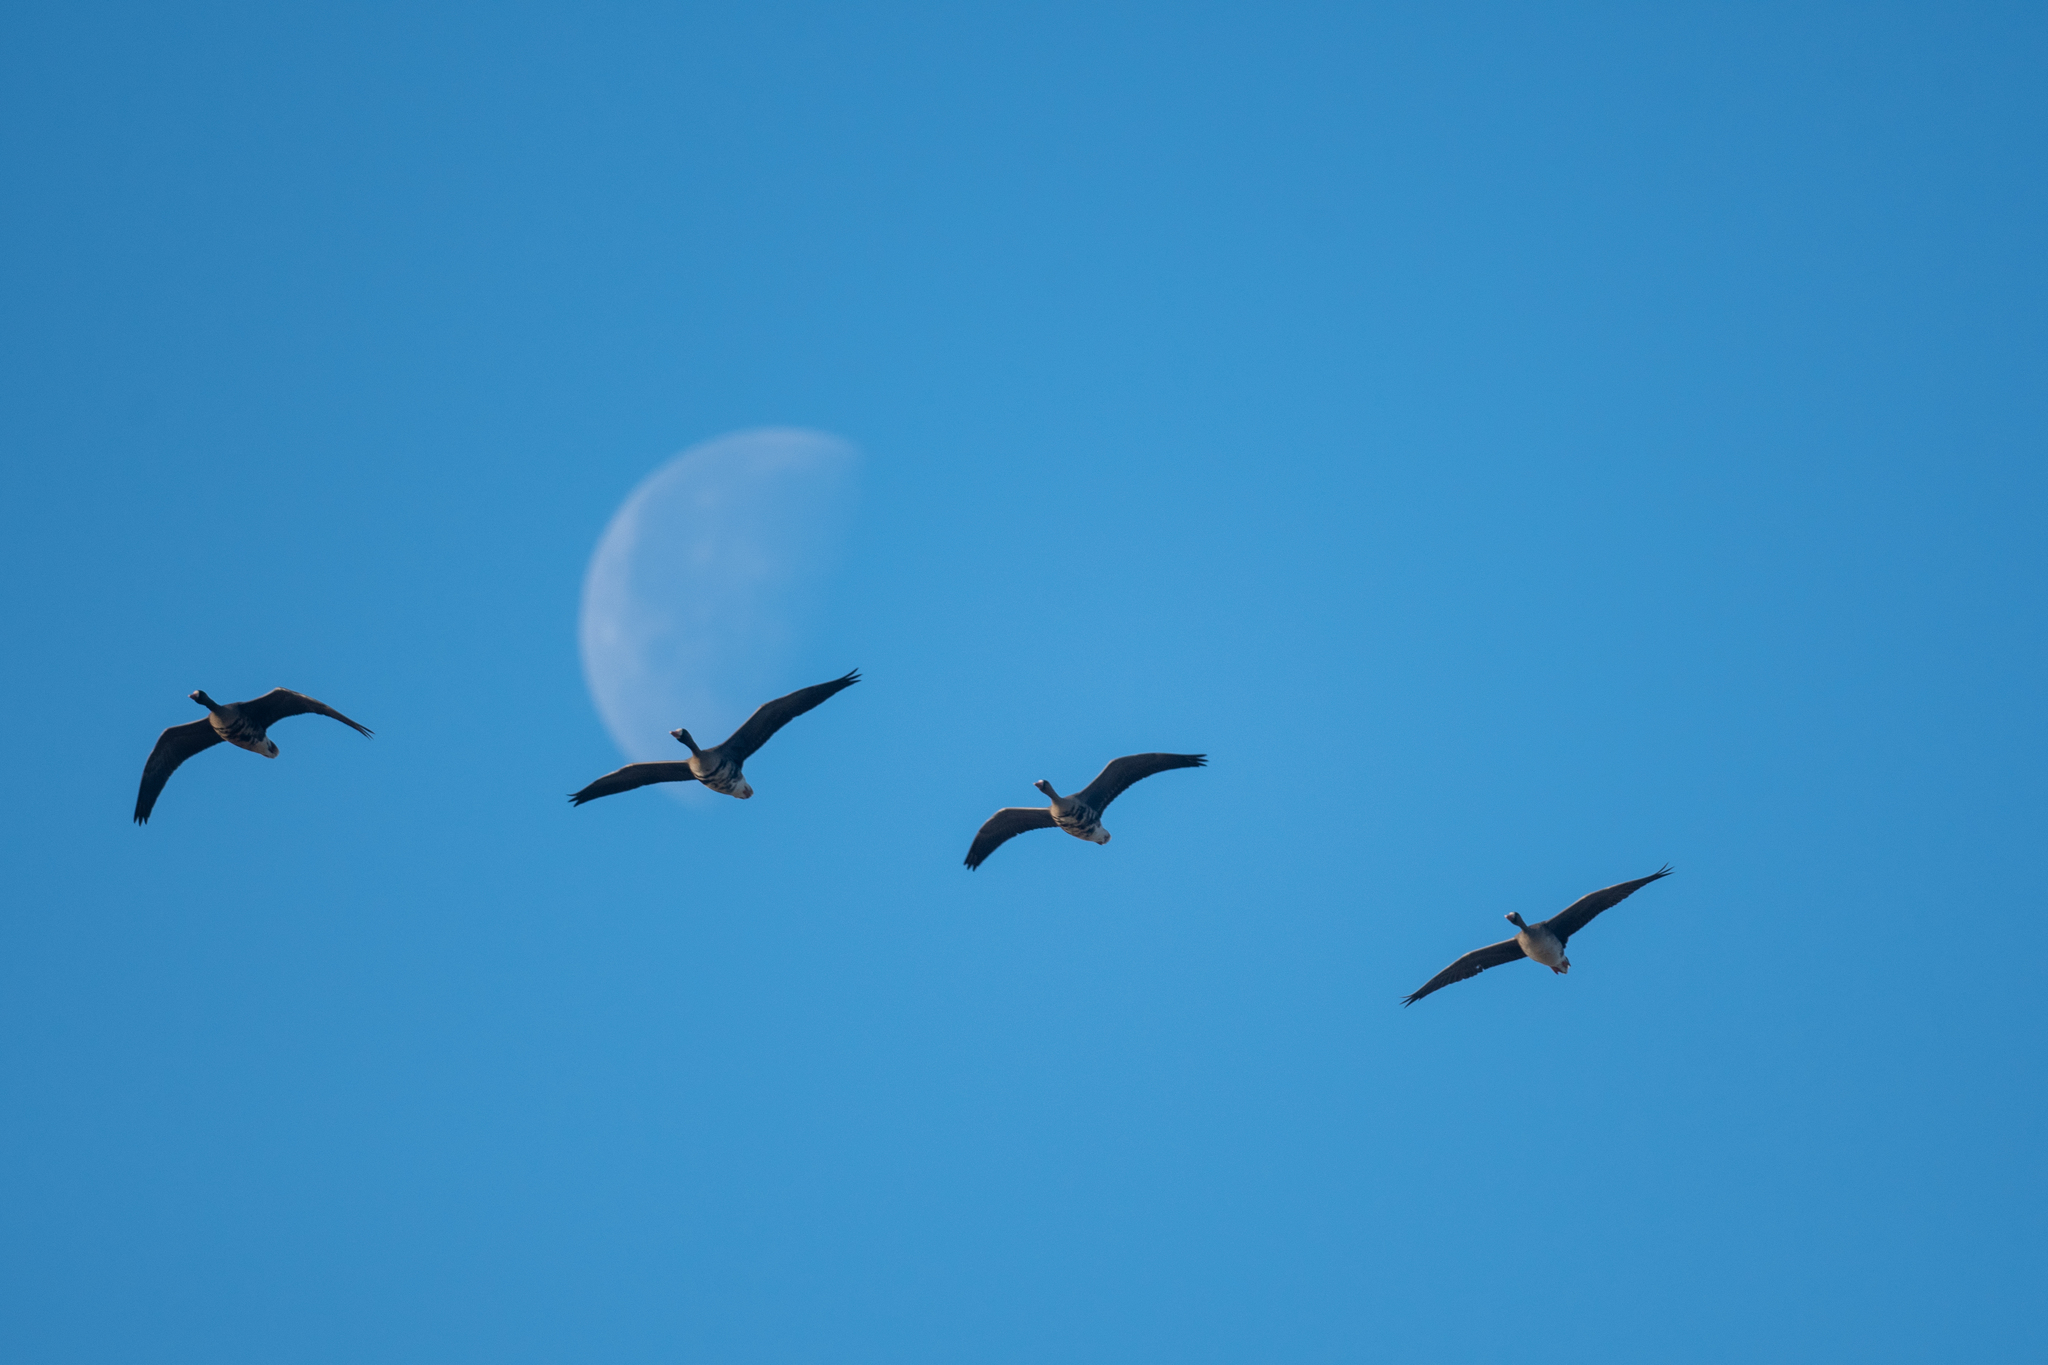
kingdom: Animalia
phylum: Chordata
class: Aves
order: Anseriformes
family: Anatidae
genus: Anser
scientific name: Anser albifrons
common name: Greater white-fronted goose
